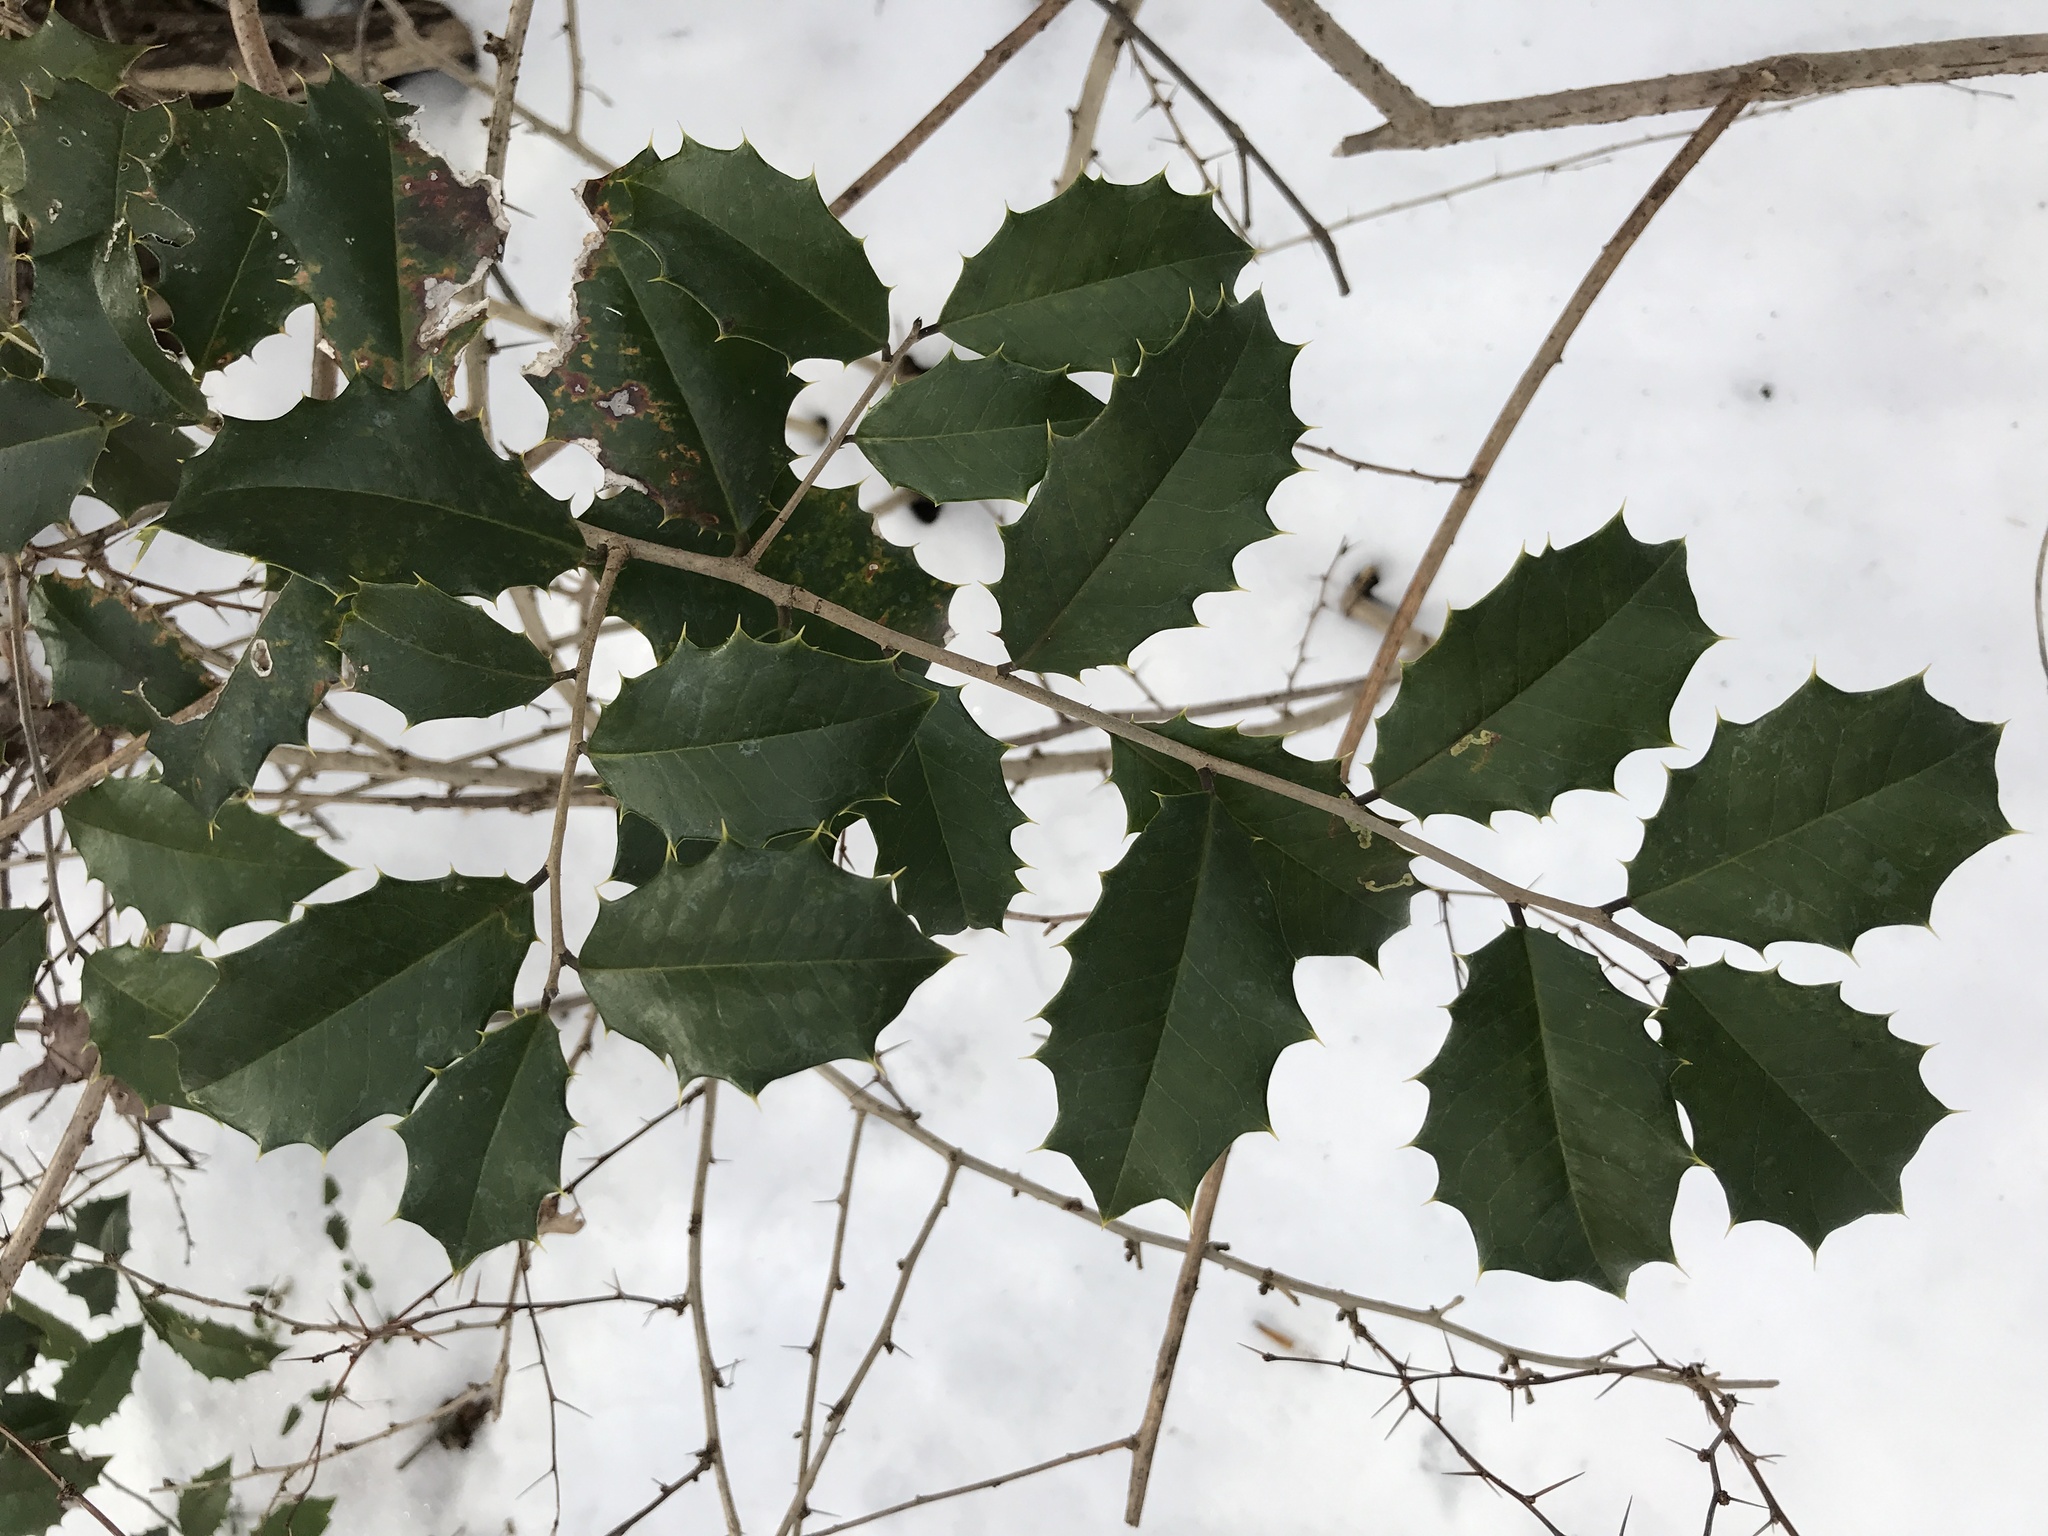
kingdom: Plantae
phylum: Tracheophyta
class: Magnoliopsida
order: Aquifoliales
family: Aquifoliaceae
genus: Ilex
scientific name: Ilex opaca
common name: American holly
